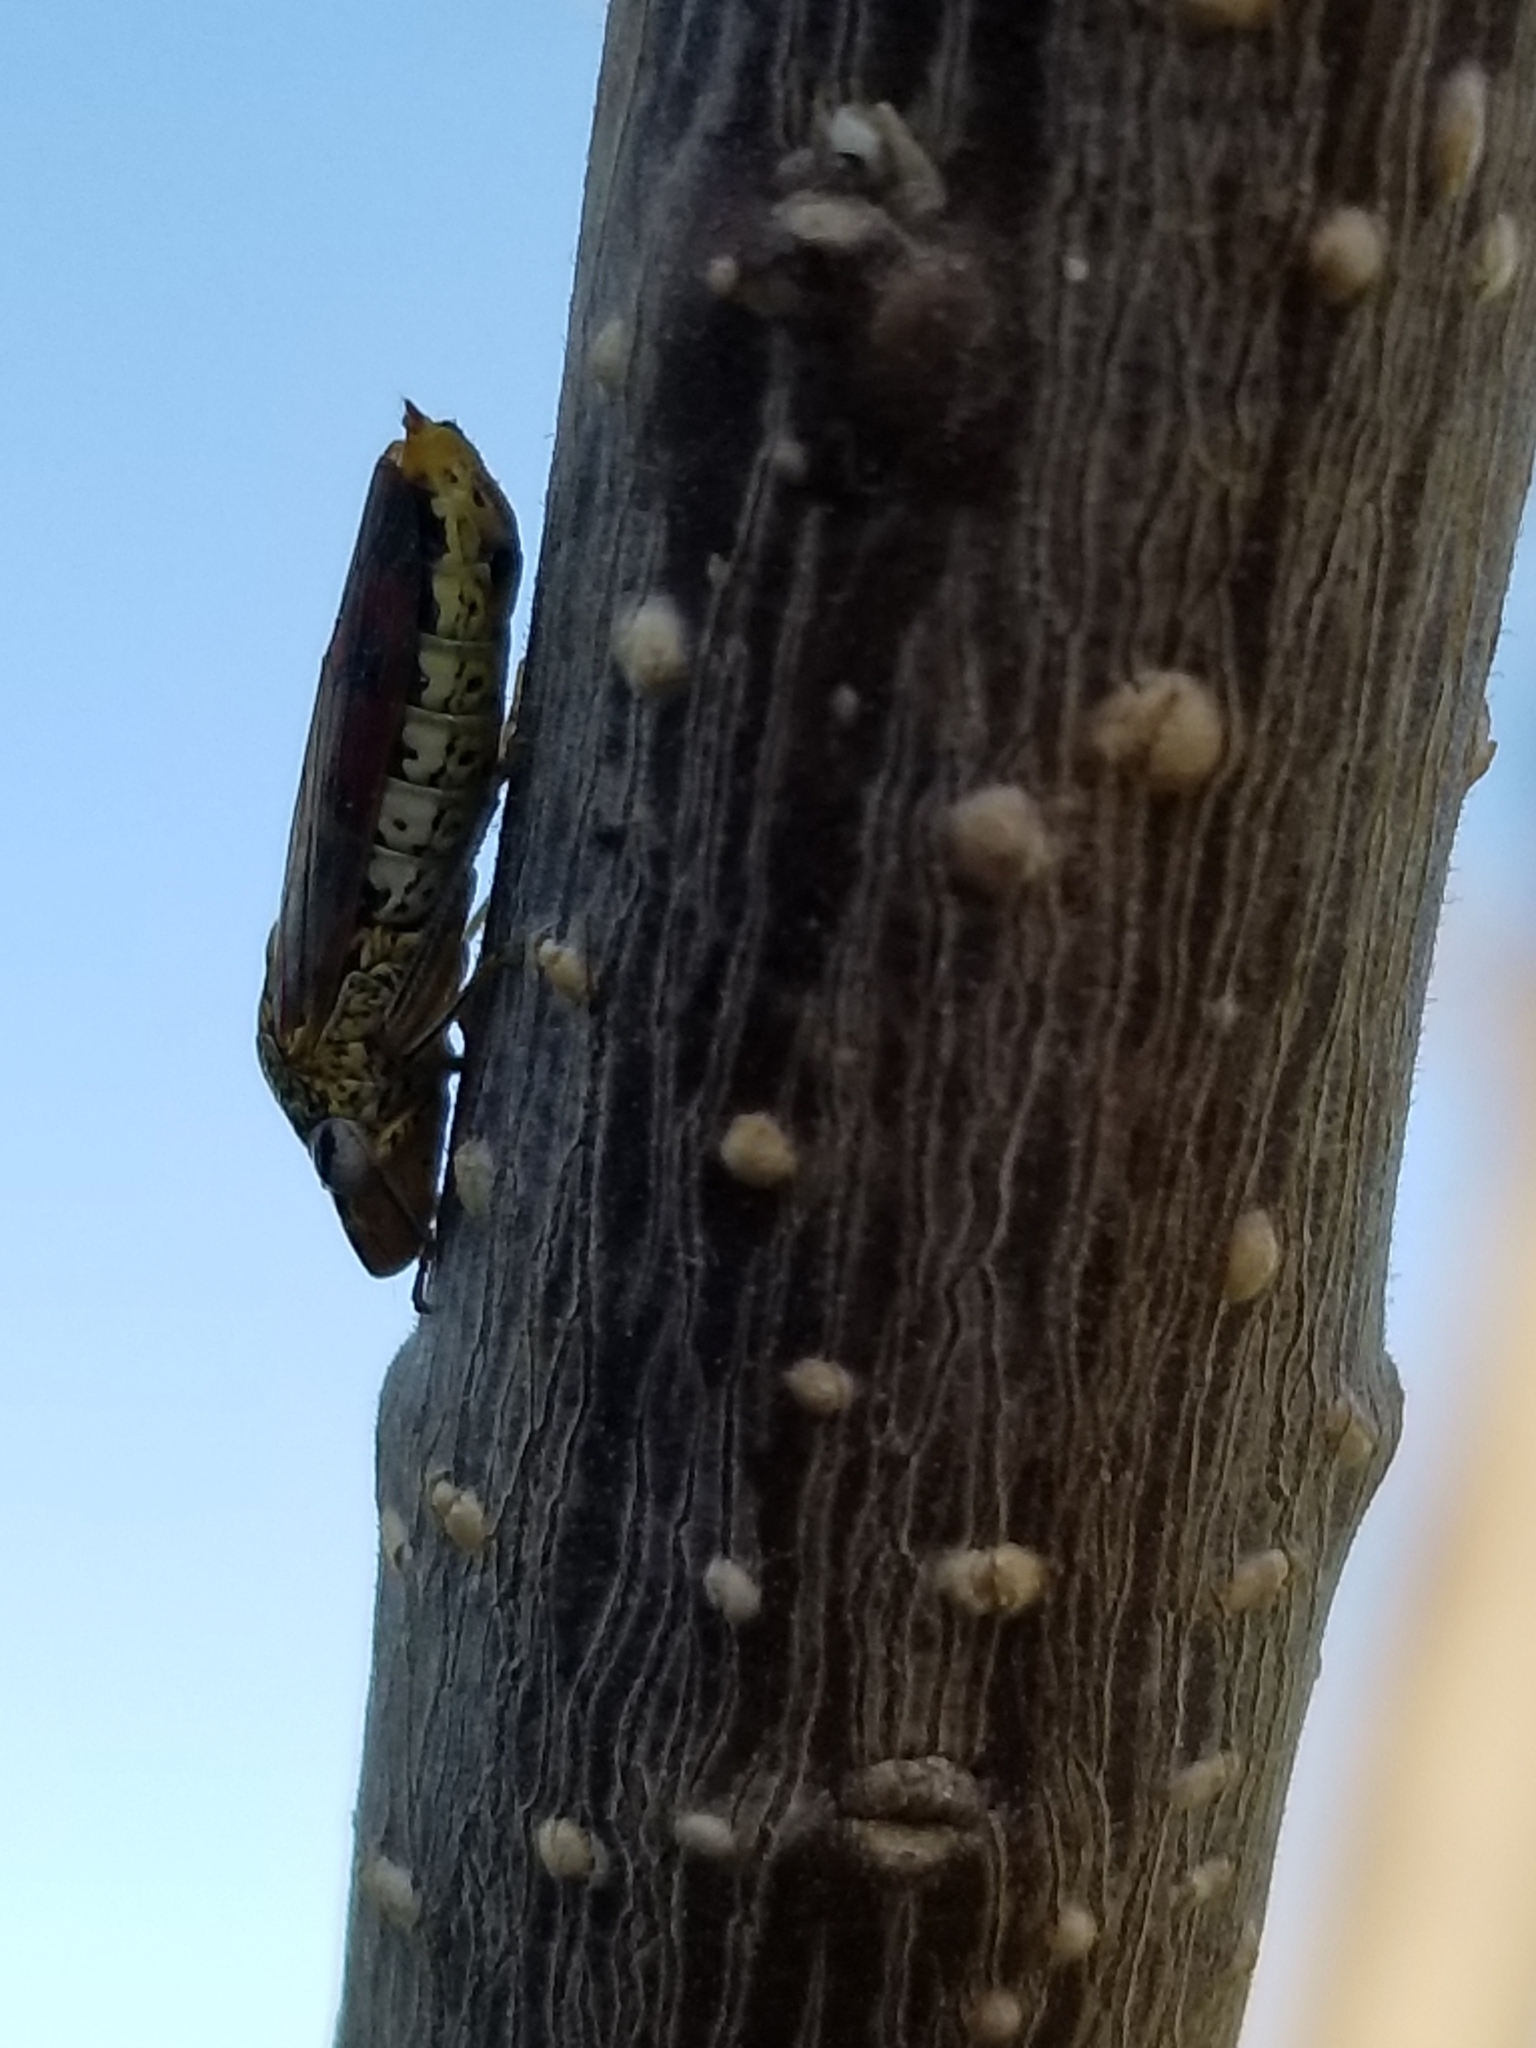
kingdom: Animalia
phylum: Arthropoda
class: Insecta
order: Hemiptera
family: Cicadellidae
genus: Homalodisca
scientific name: Homalodisca liturata
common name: Lacertate sharpshooter
